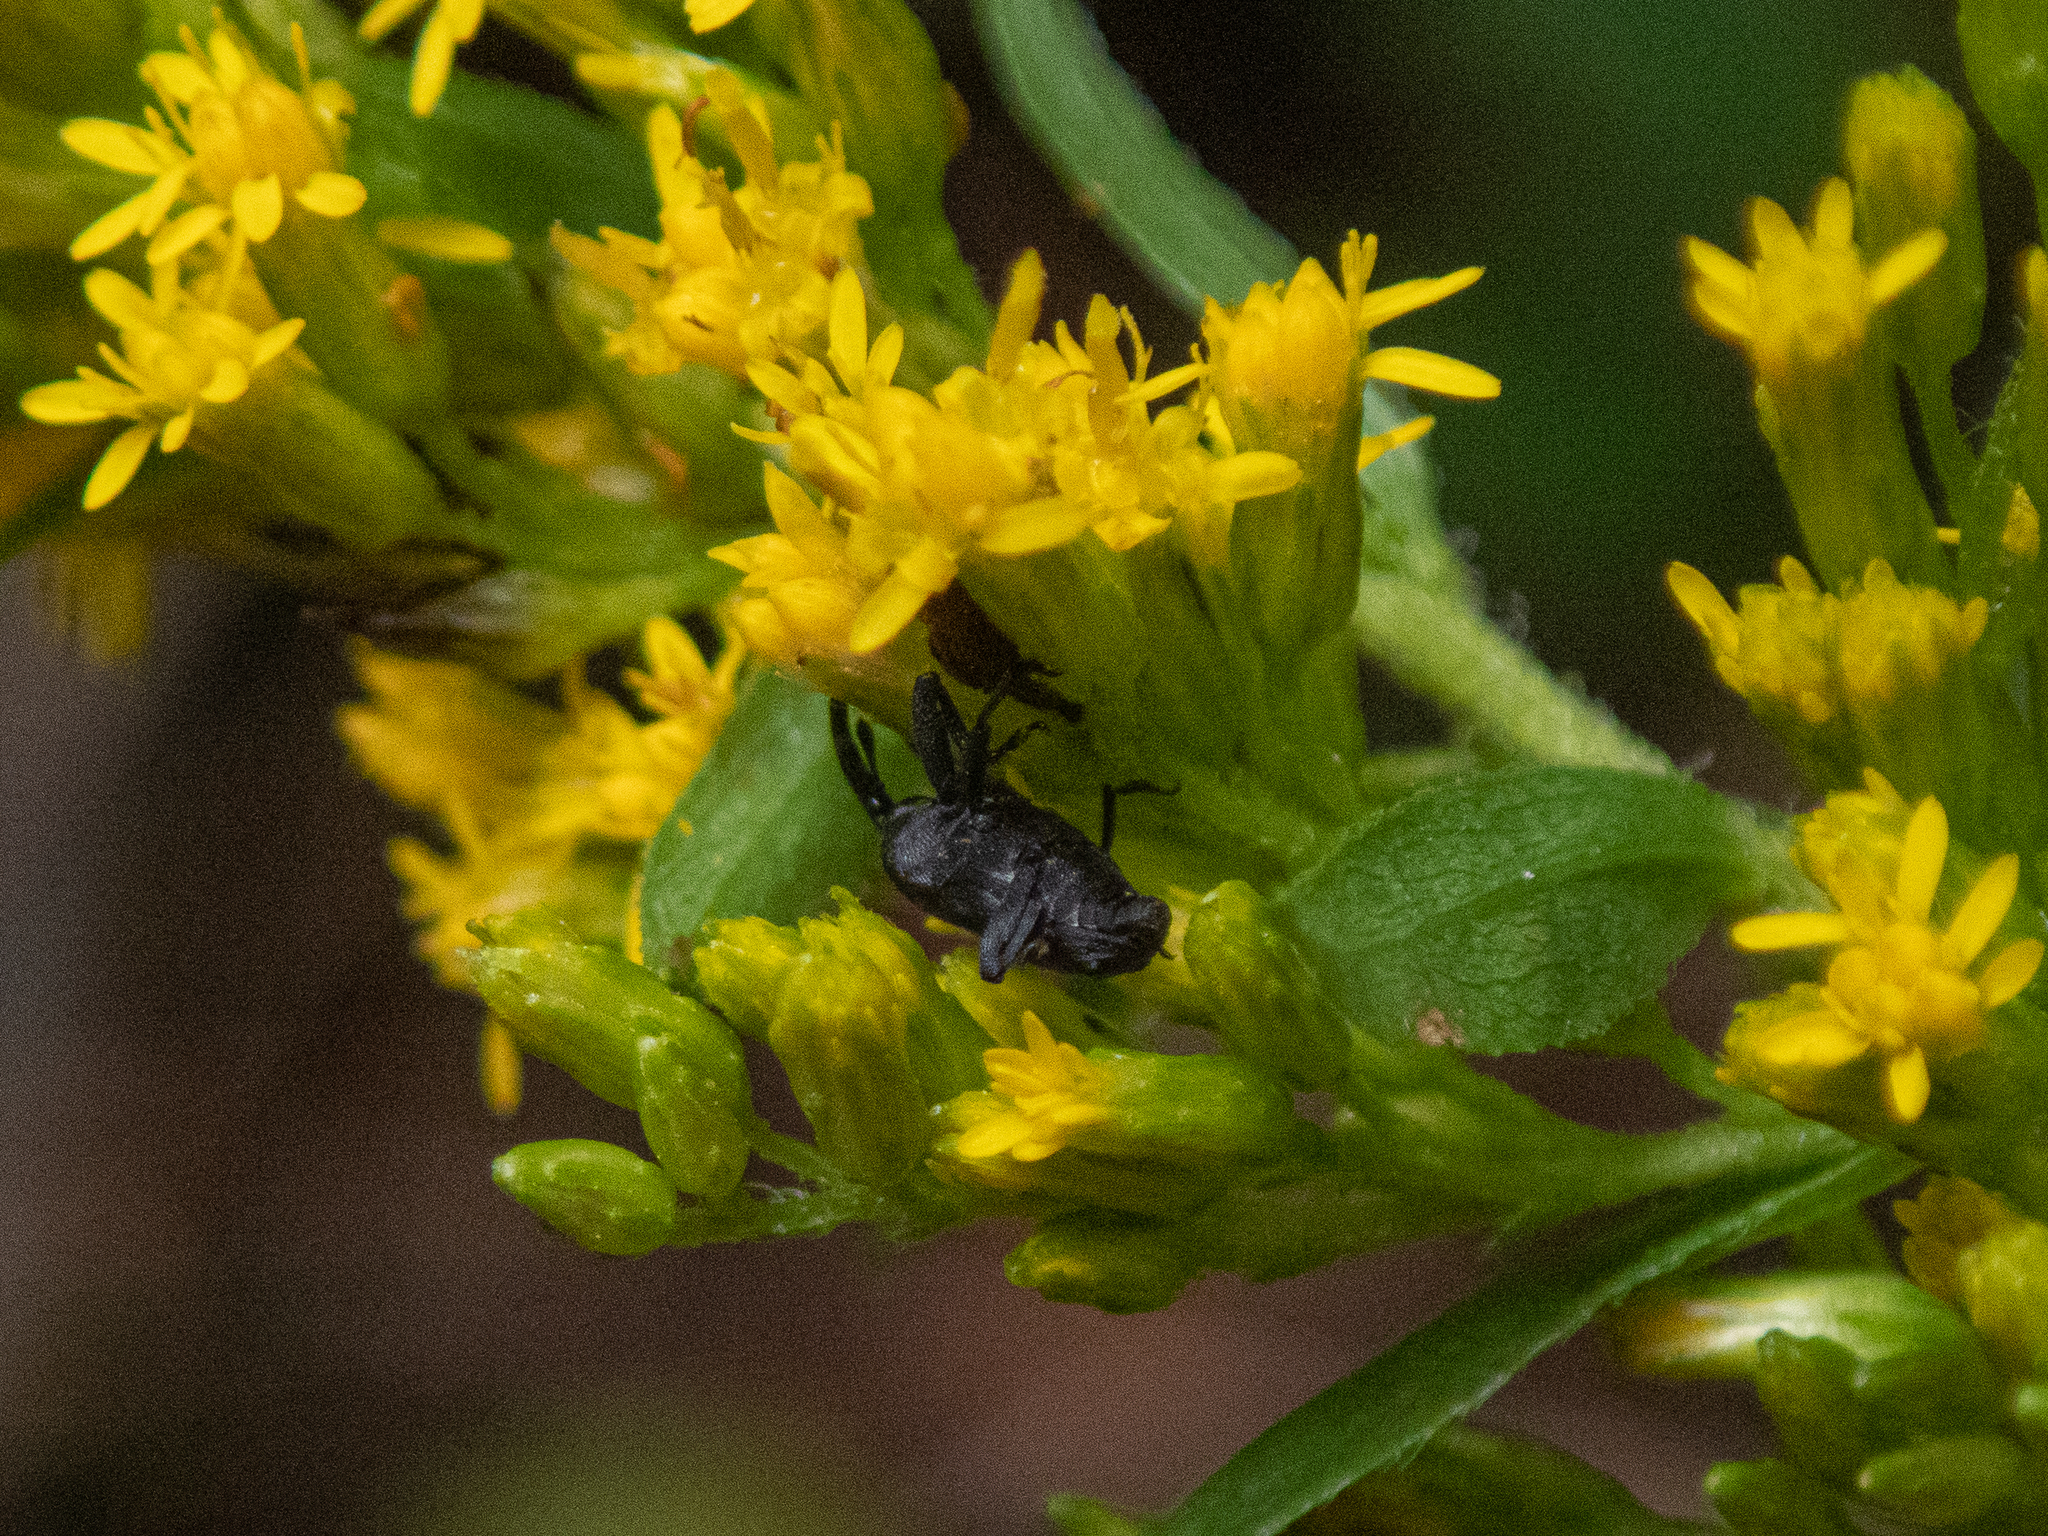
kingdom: Animalia
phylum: Arthropoda
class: Insecta
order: Coleoptera
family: Curculionidae
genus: Madarellus
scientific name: Madarellus undulatus
